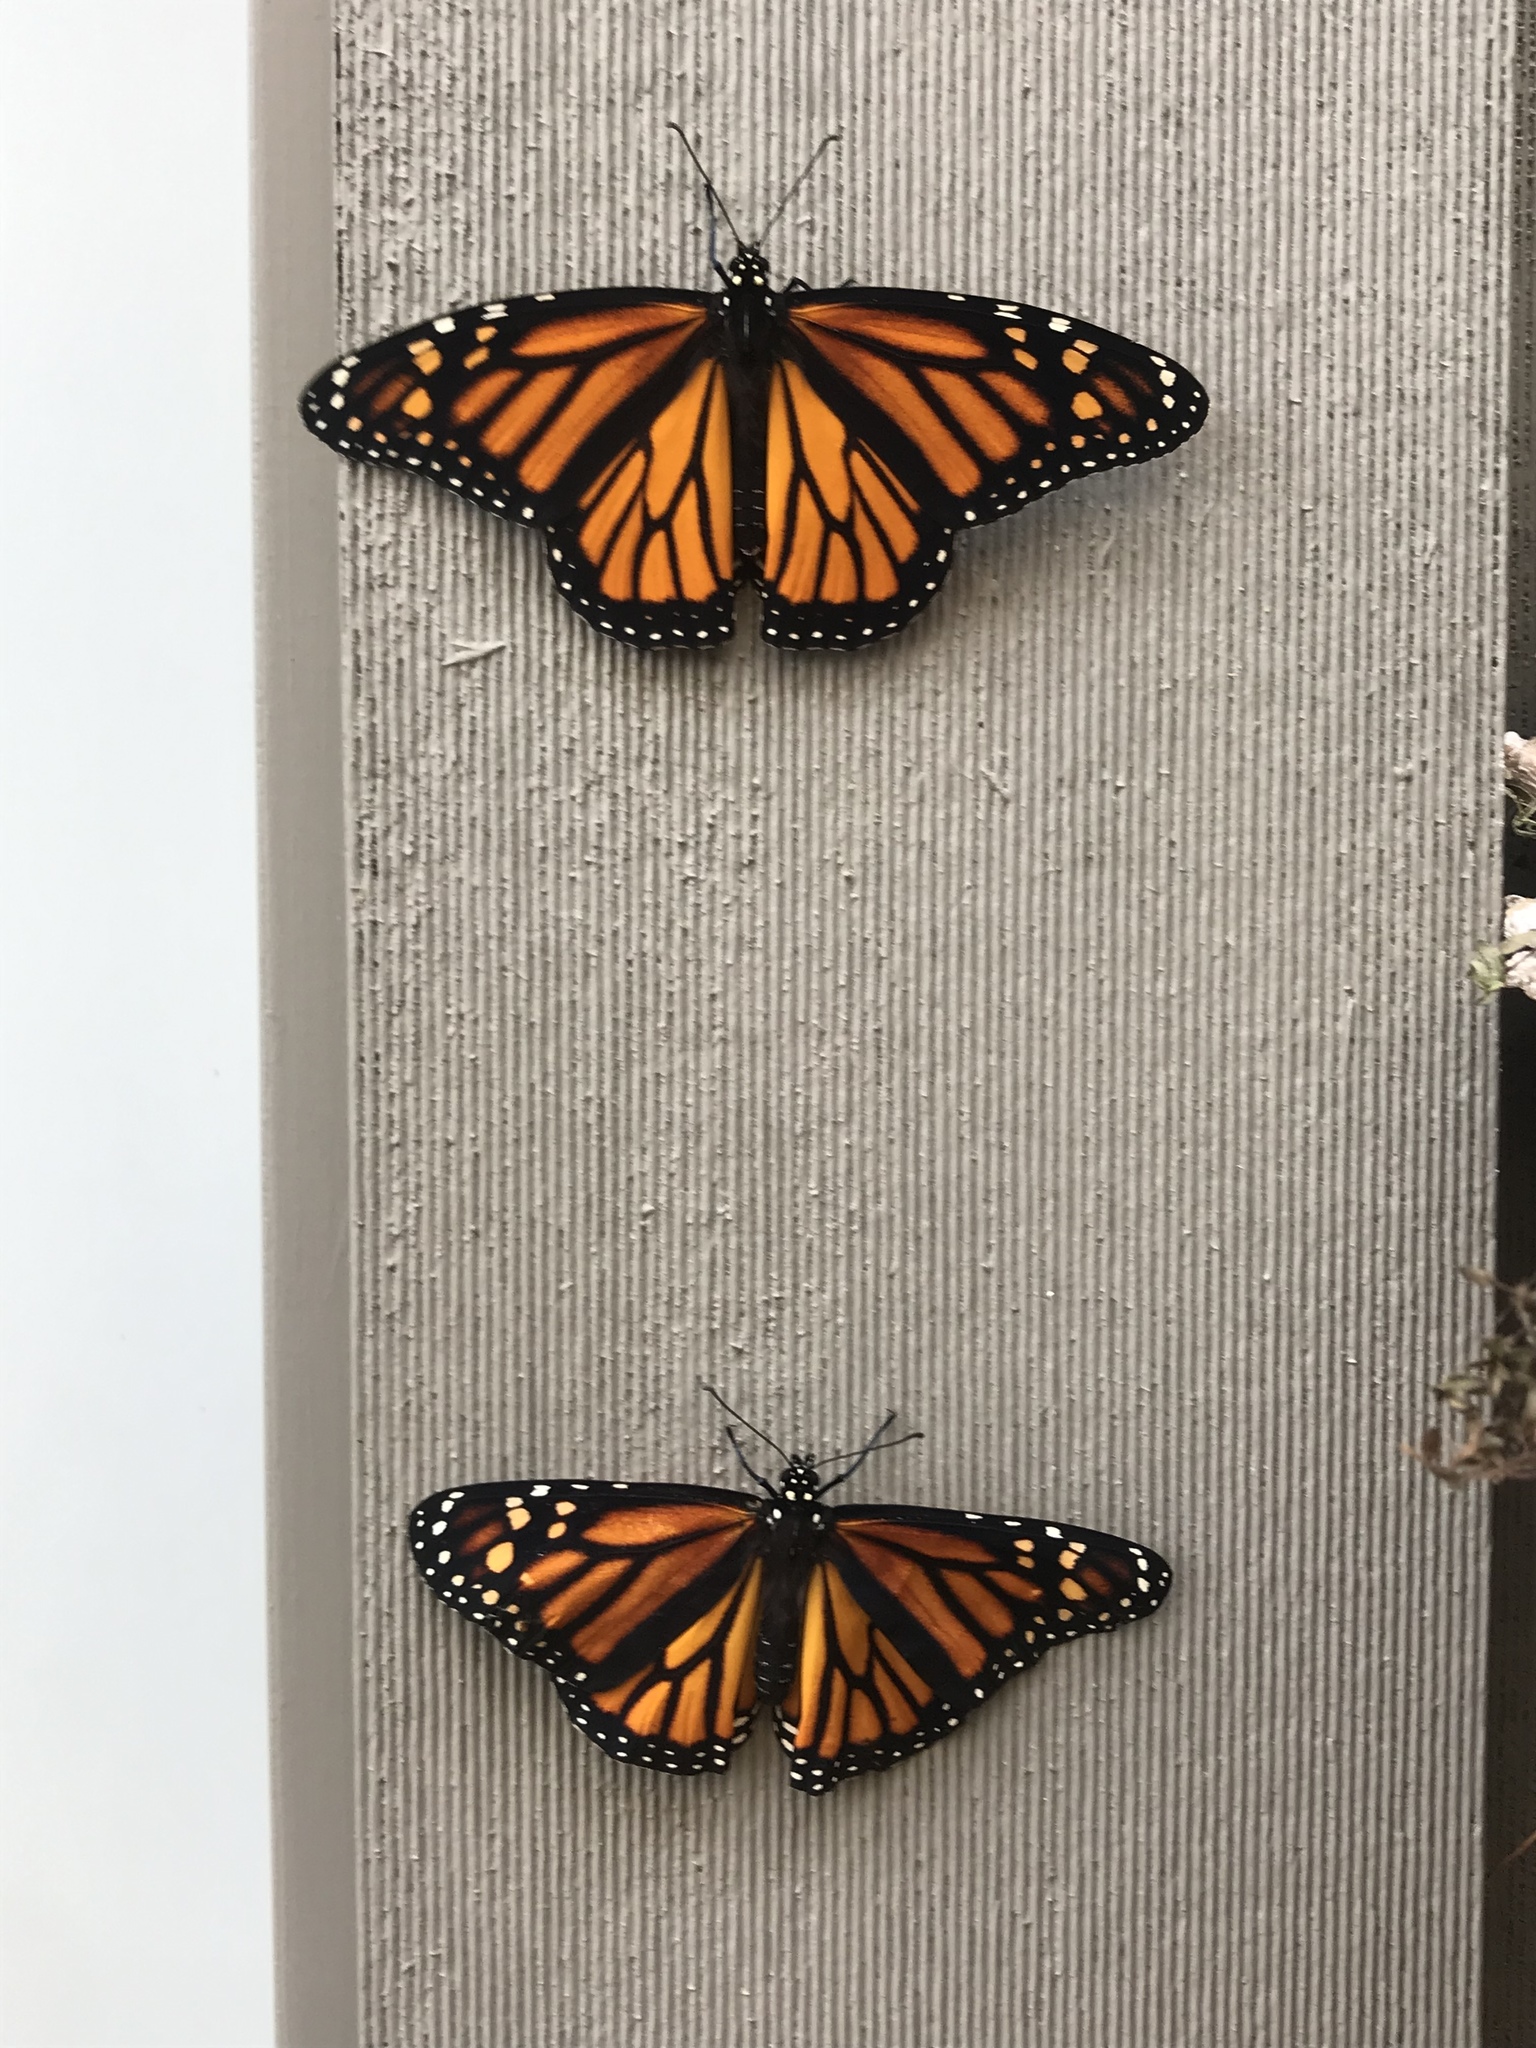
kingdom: Animalia
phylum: Arthropoda
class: Insecta
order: Lepidoptera
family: Nymphalidae
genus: Danaus
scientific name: Danaus plexippus
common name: Monarch
